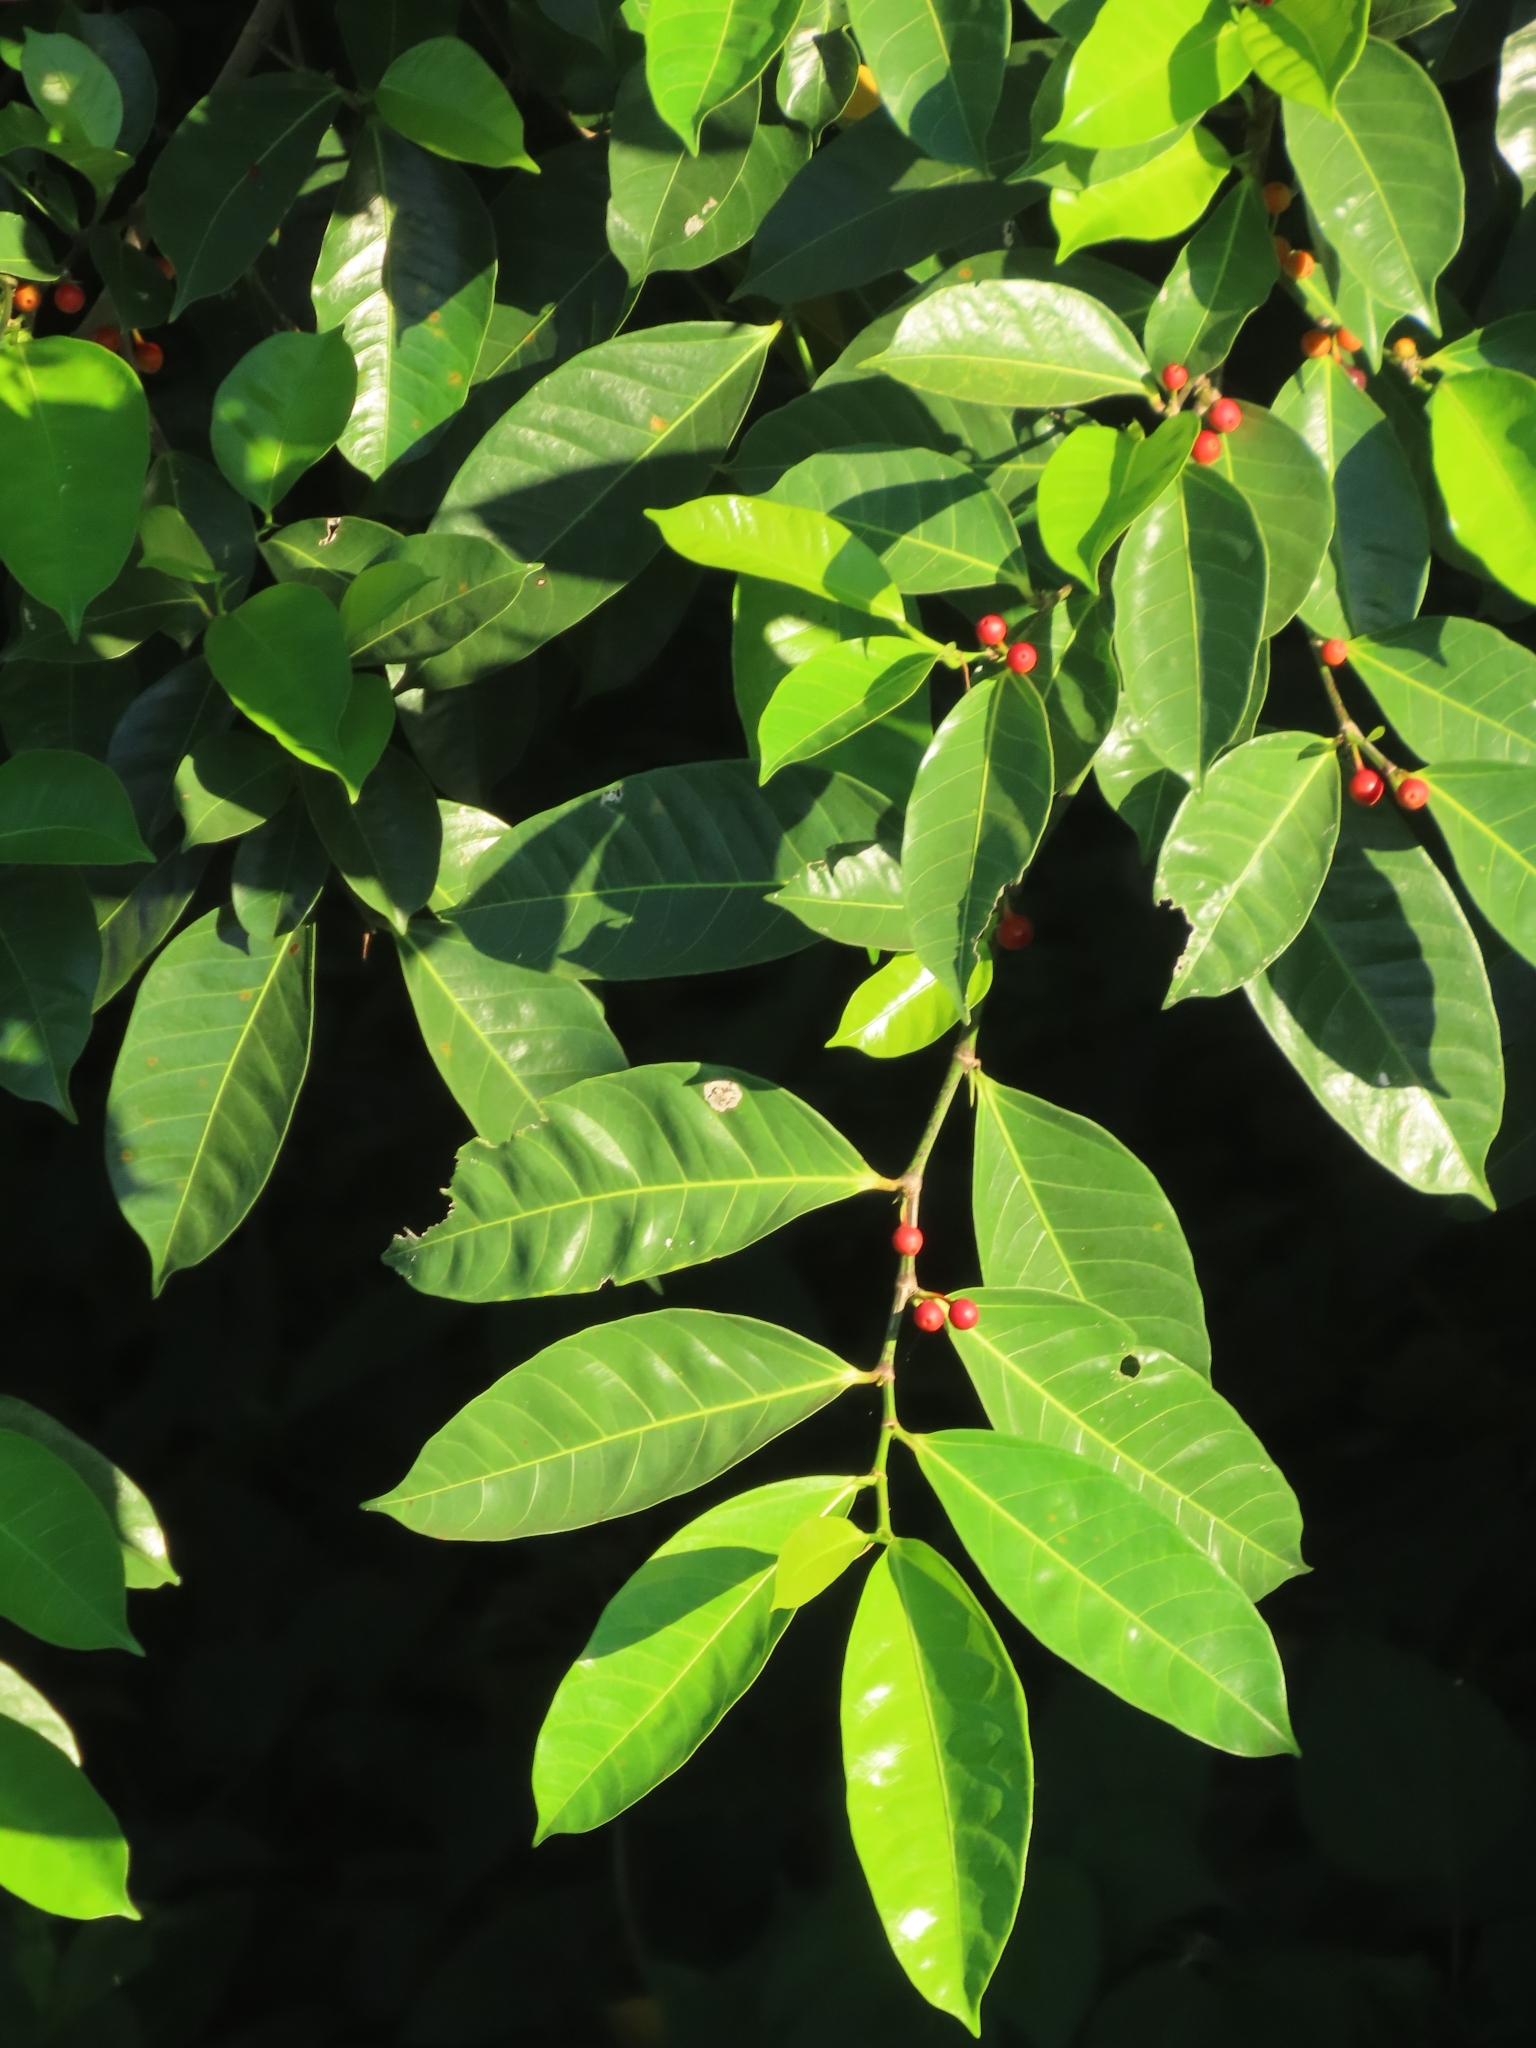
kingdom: Plantae
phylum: Tracheophyta
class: Magnoliopsida
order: Rosales
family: Moraceae
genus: Ficus
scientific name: Ficus virgata
